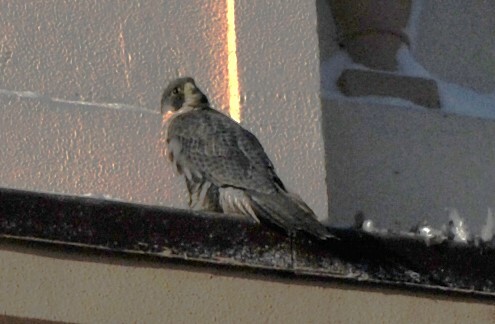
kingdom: Animalia
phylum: Chordata
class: Aves
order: Falconiformes
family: Falconidae
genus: Falco
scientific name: Falco peregrinus
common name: Peregrine falcon
